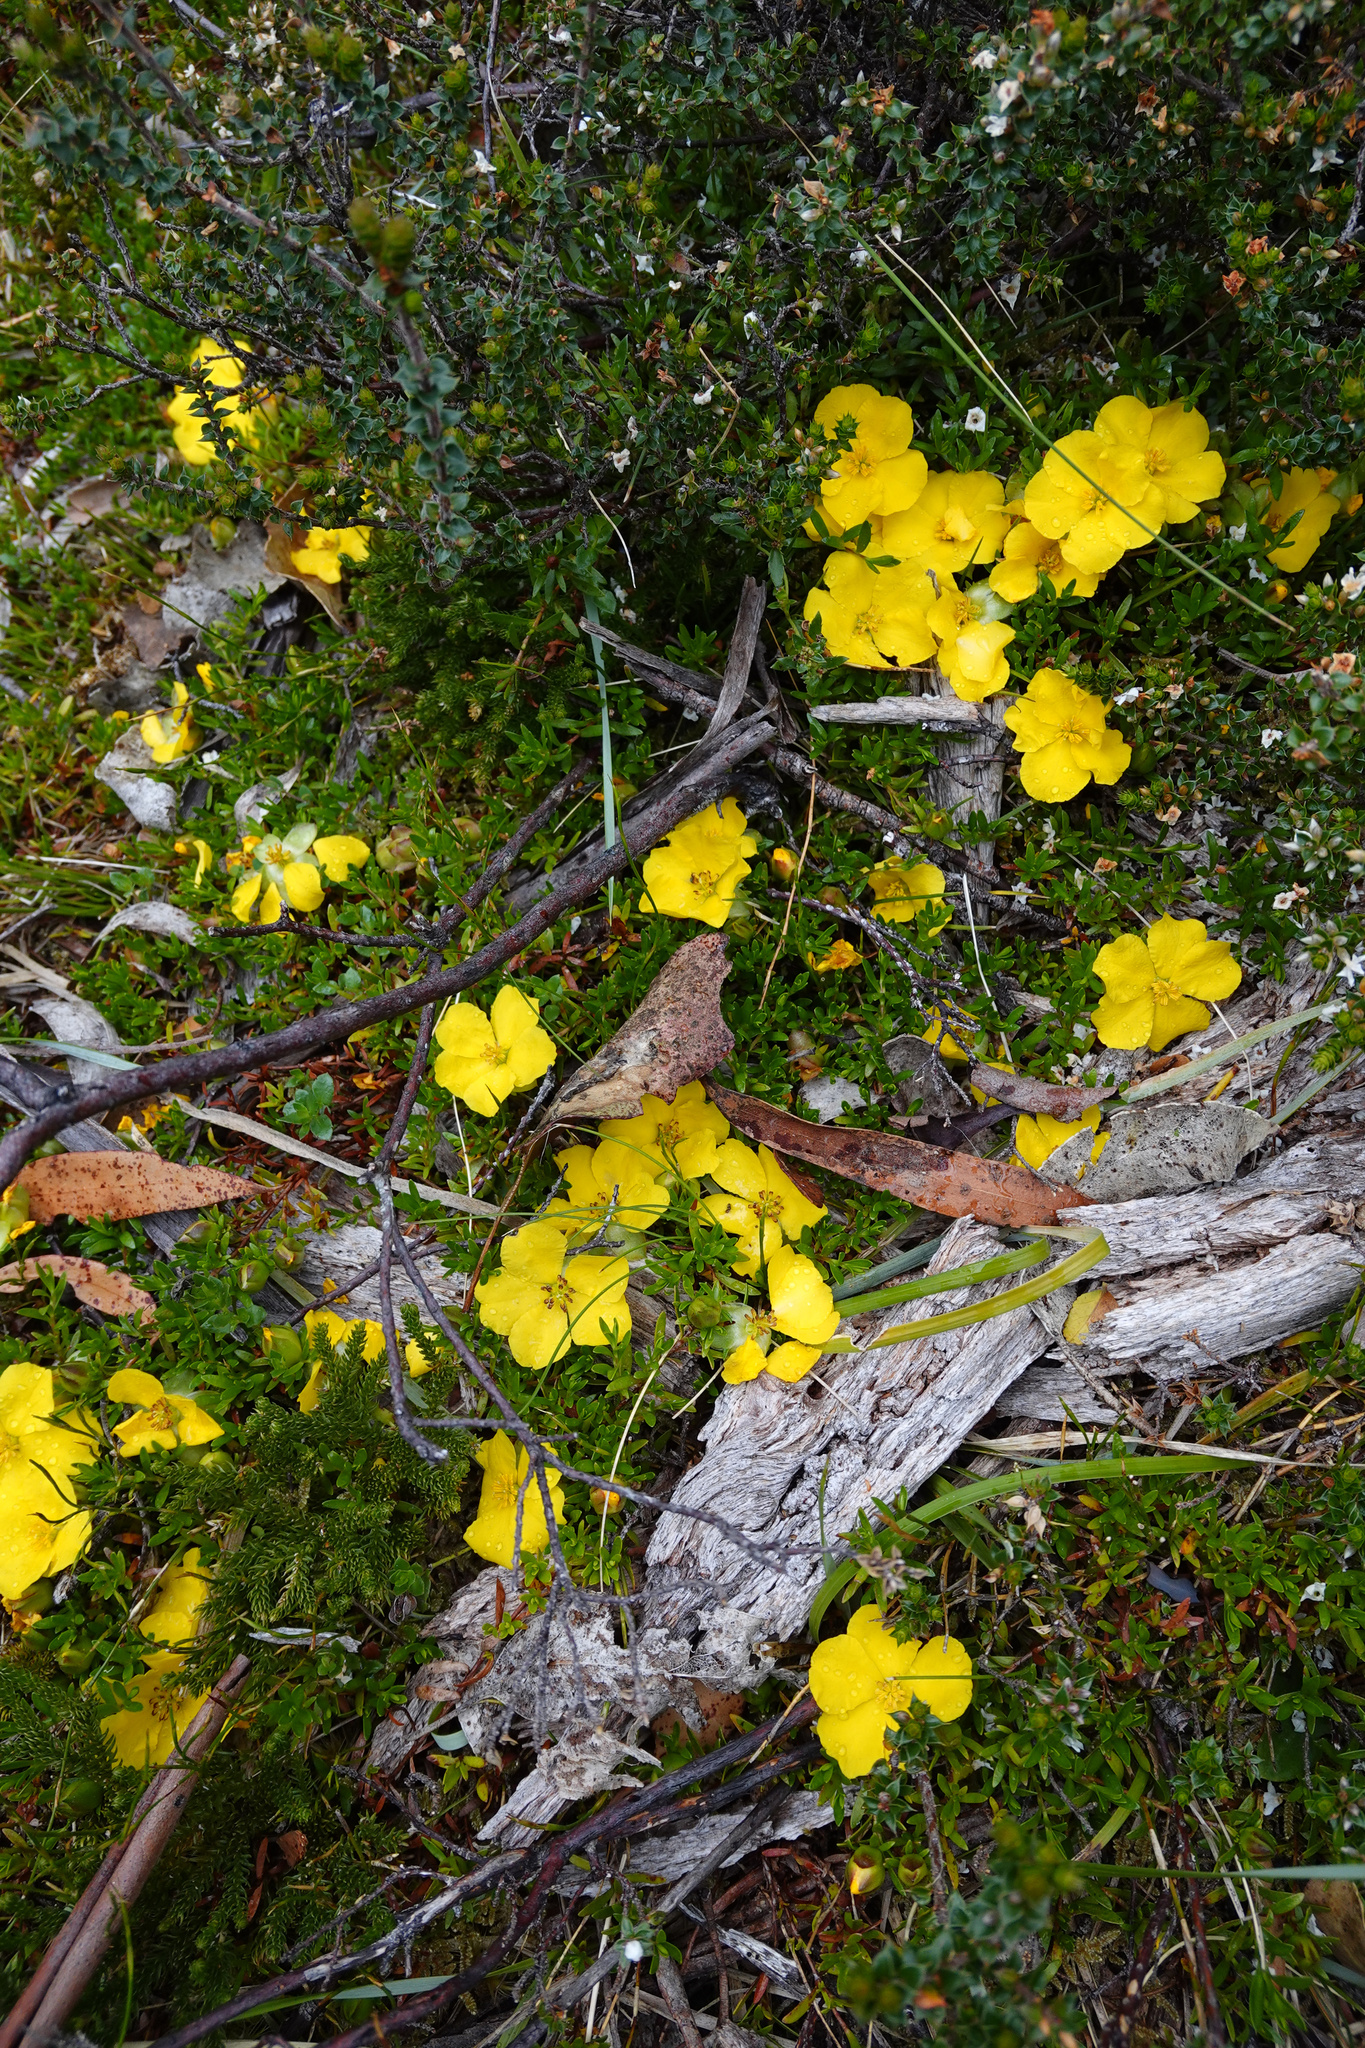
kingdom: Plantae
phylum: Tracheophyta
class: Magnoliopsida
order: Dilleniales
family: Dilleniaceae
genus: Hibbertia
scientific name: Hibbertia procumbens
